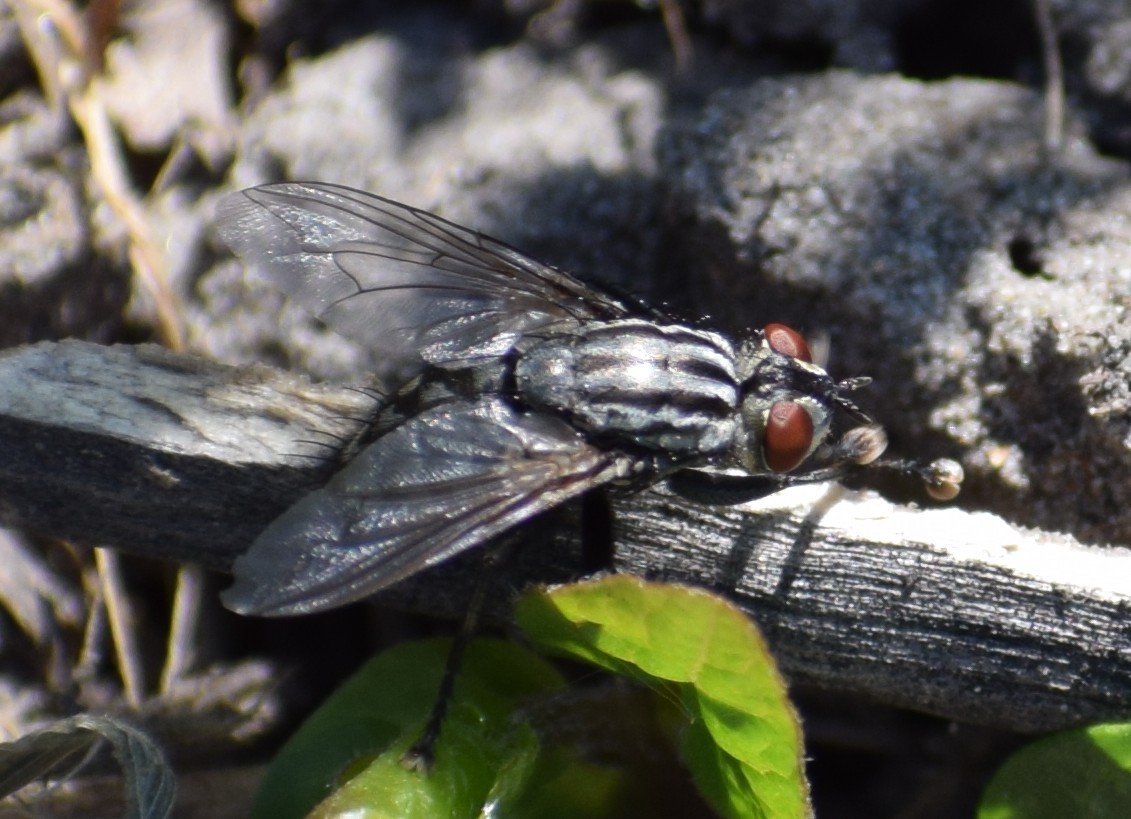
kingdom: Animalia
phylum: Arthropoda
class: Insecta
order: Diptera
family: Sarcophagidae
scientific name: Sarcophagidae
